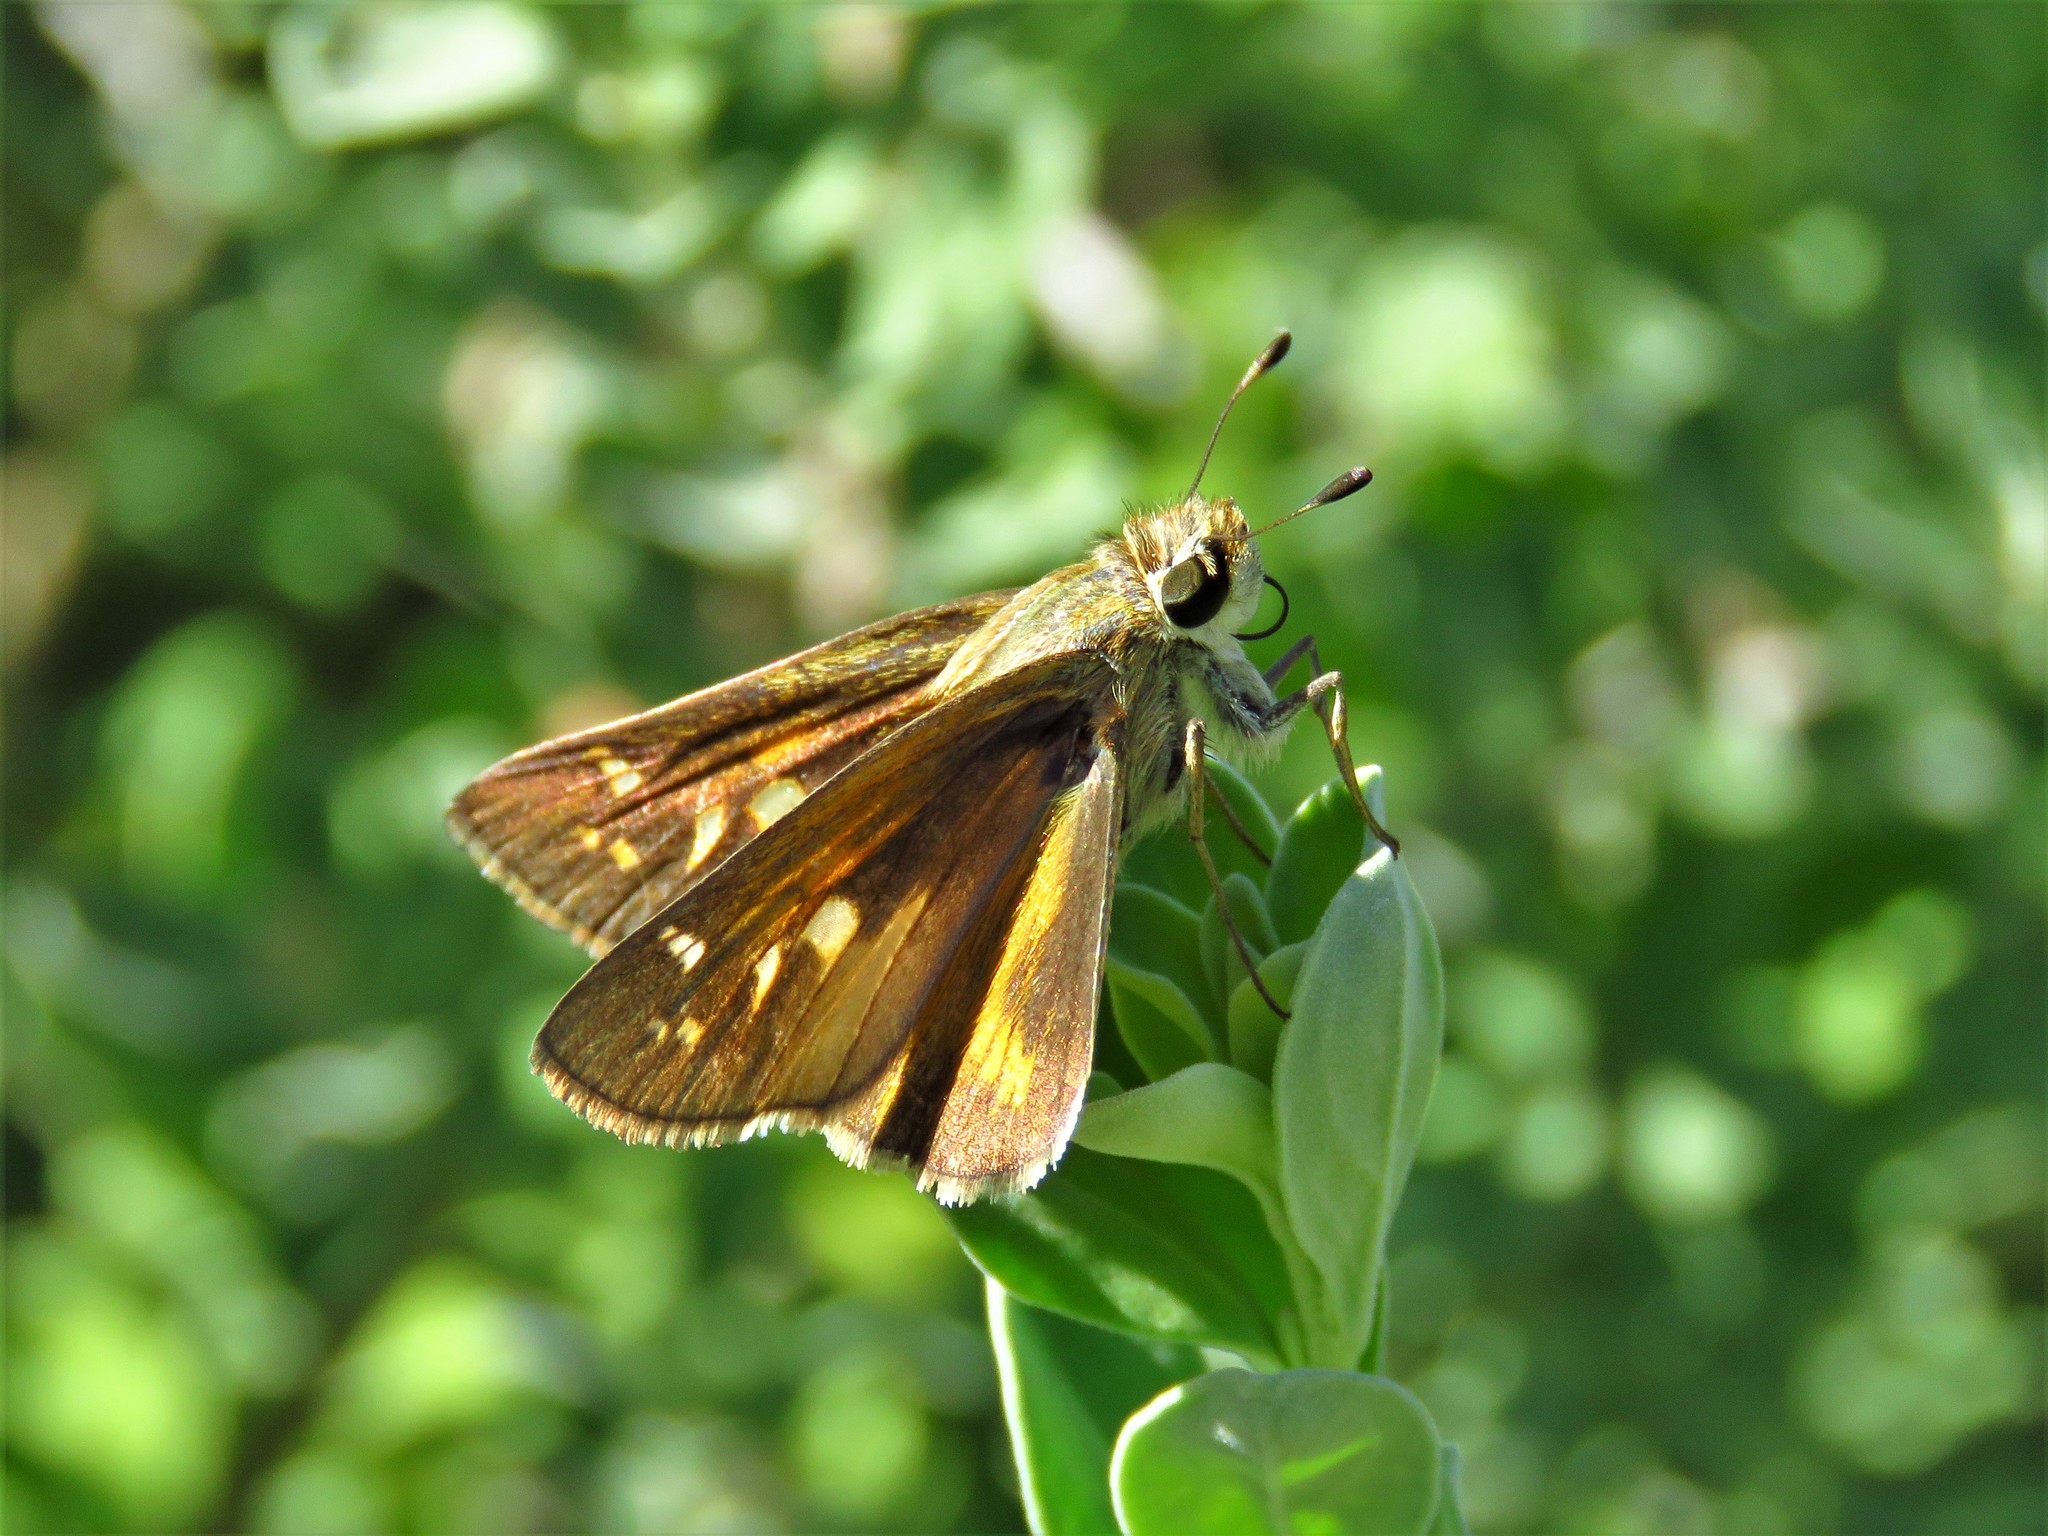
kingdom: Animalia
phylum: Arthropoda
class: Insecta
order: Lepidoptera
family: Hesperiidae
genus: Atalopedes
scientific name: Atalopedes
